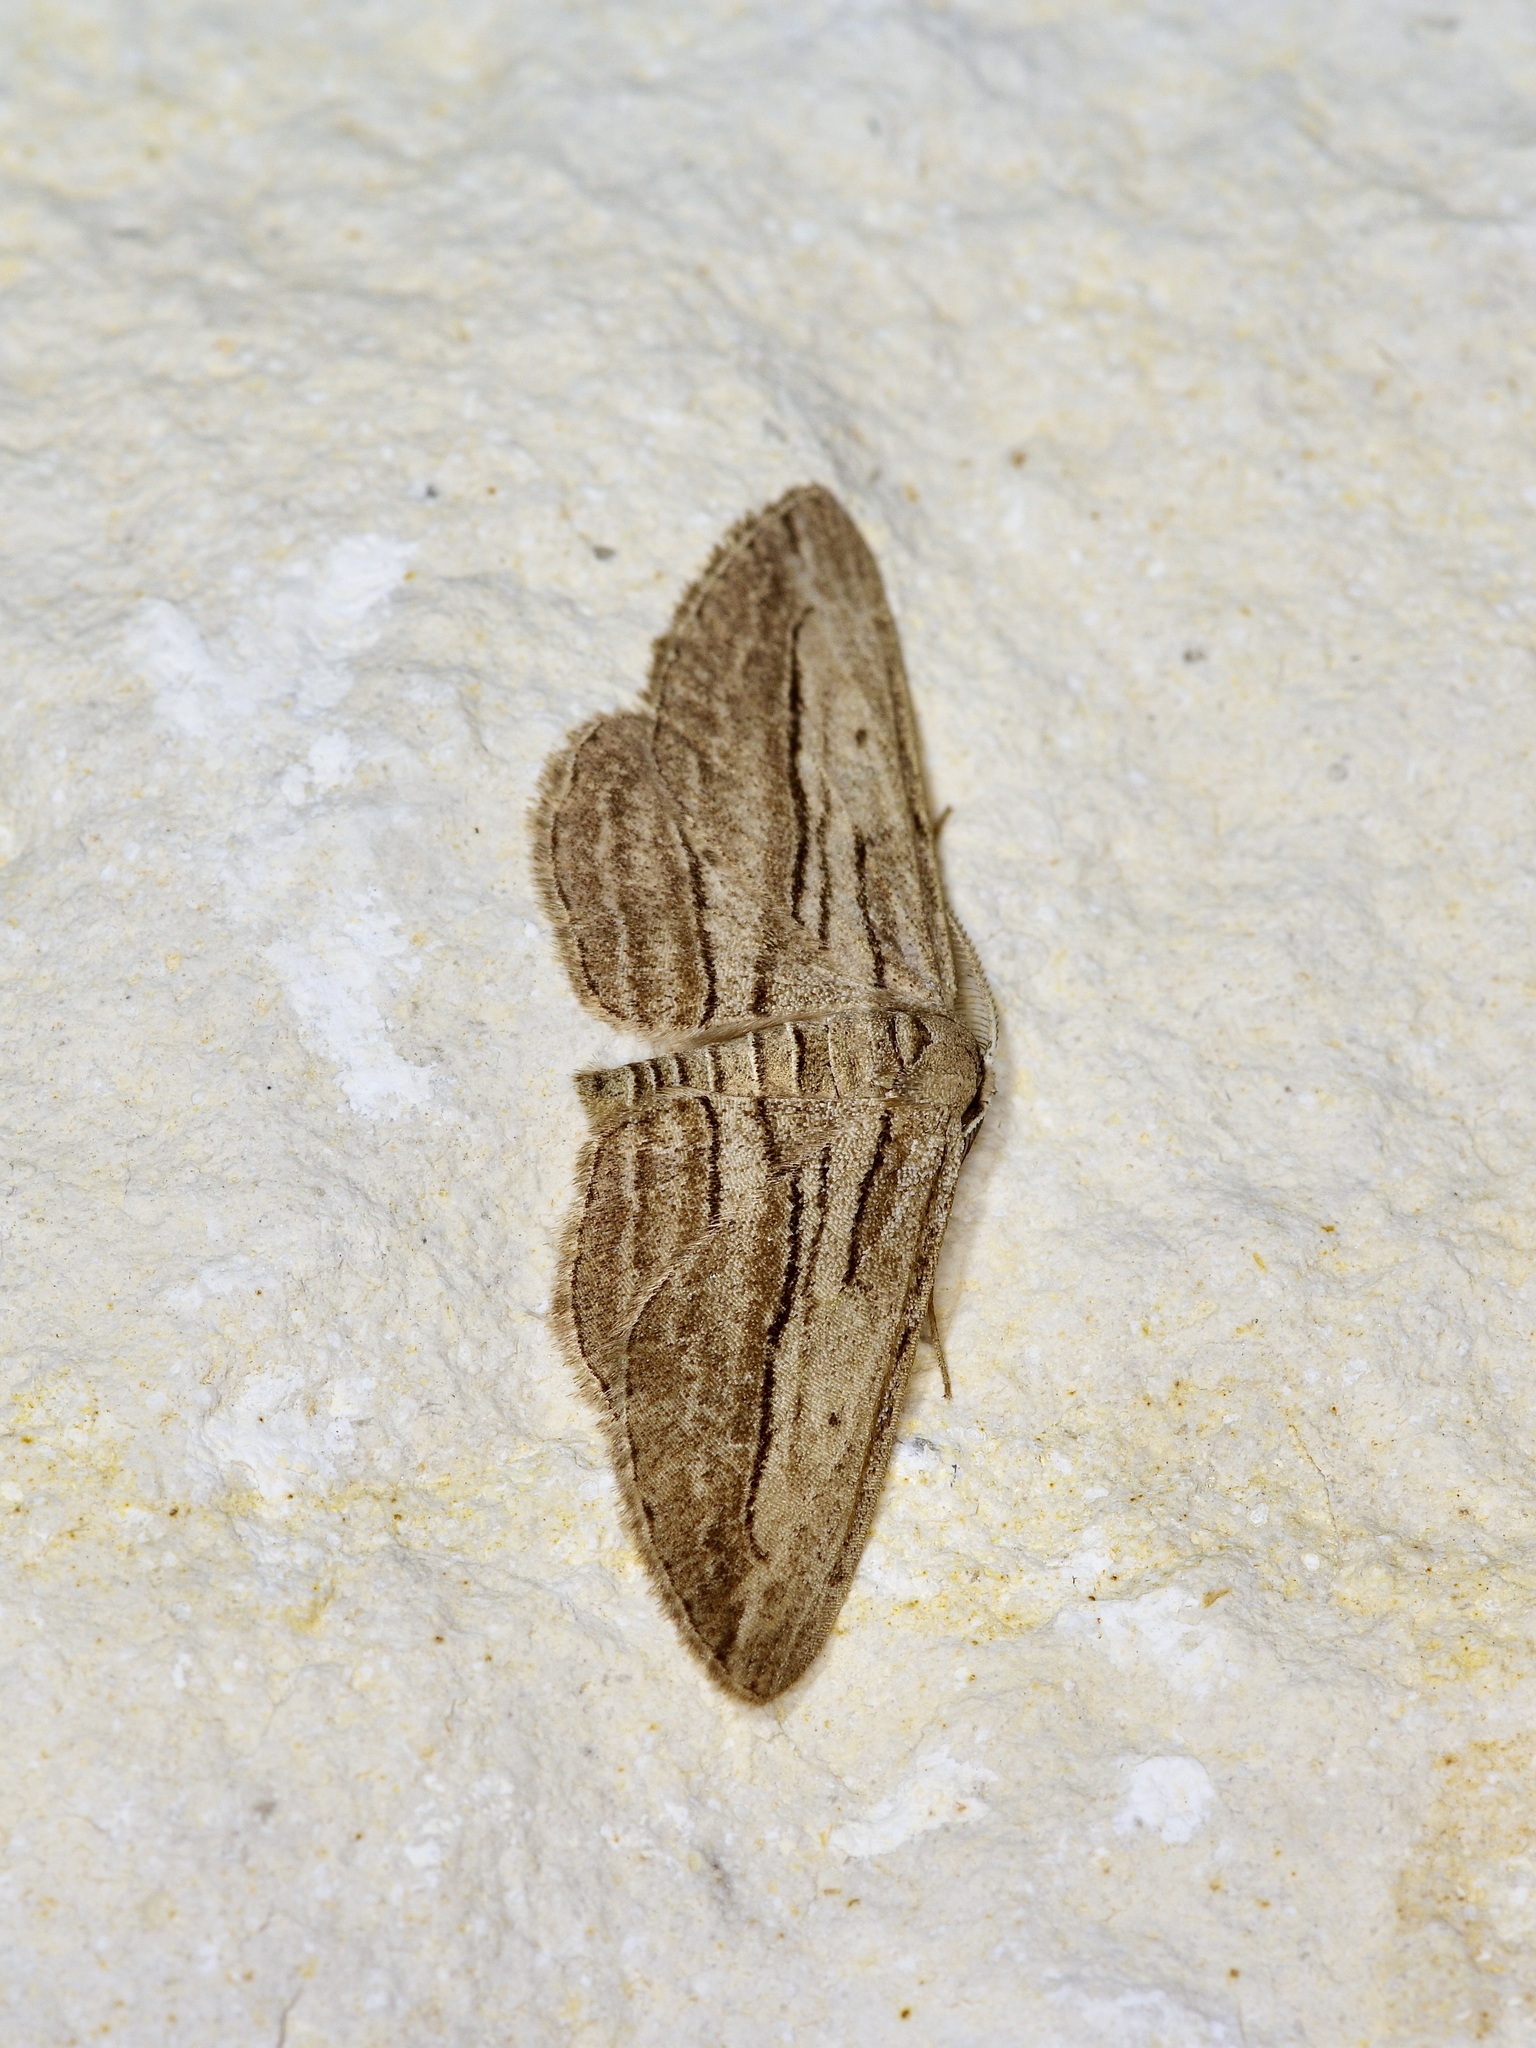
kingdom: Animalia
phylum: Arthropoda
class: Insecta
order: Lepidoptera
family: Geometridae
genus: Glena
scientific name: Glena quinquelinearia
